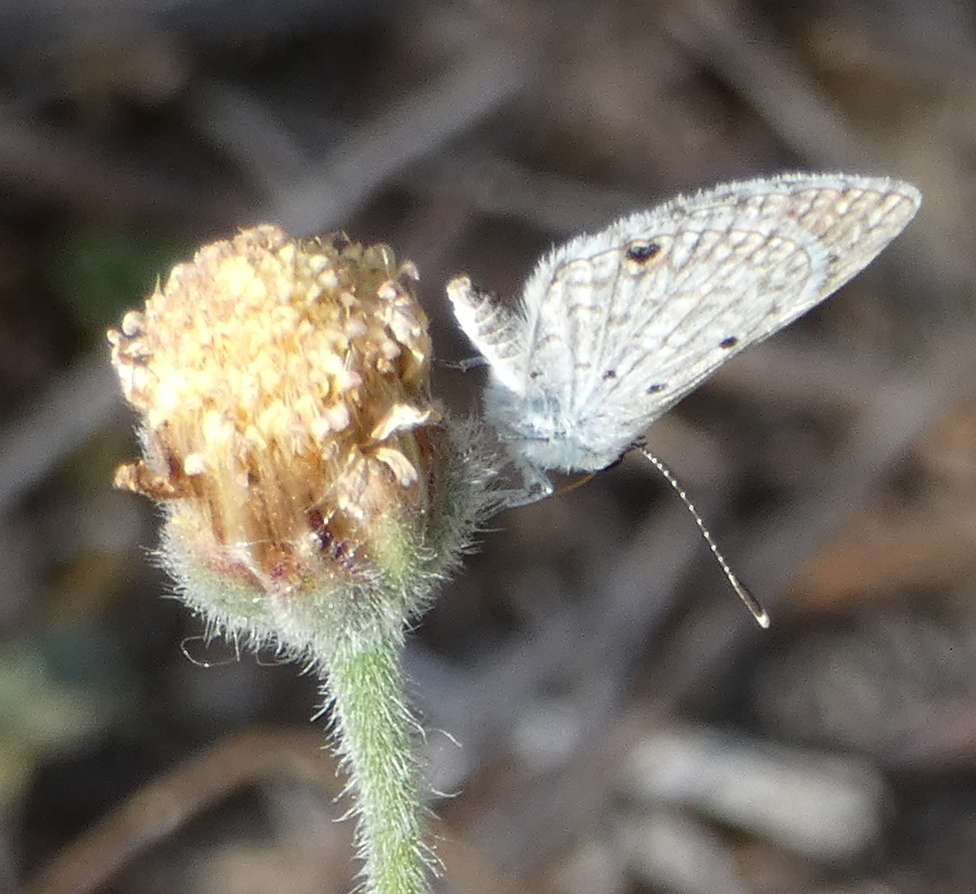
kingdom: Animalia
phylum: Arthropoda
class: Insecta
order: Lepidoptera
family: Lycaenidae
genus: Hemiargus
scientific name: Hemiargus hanno
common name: Common blue
